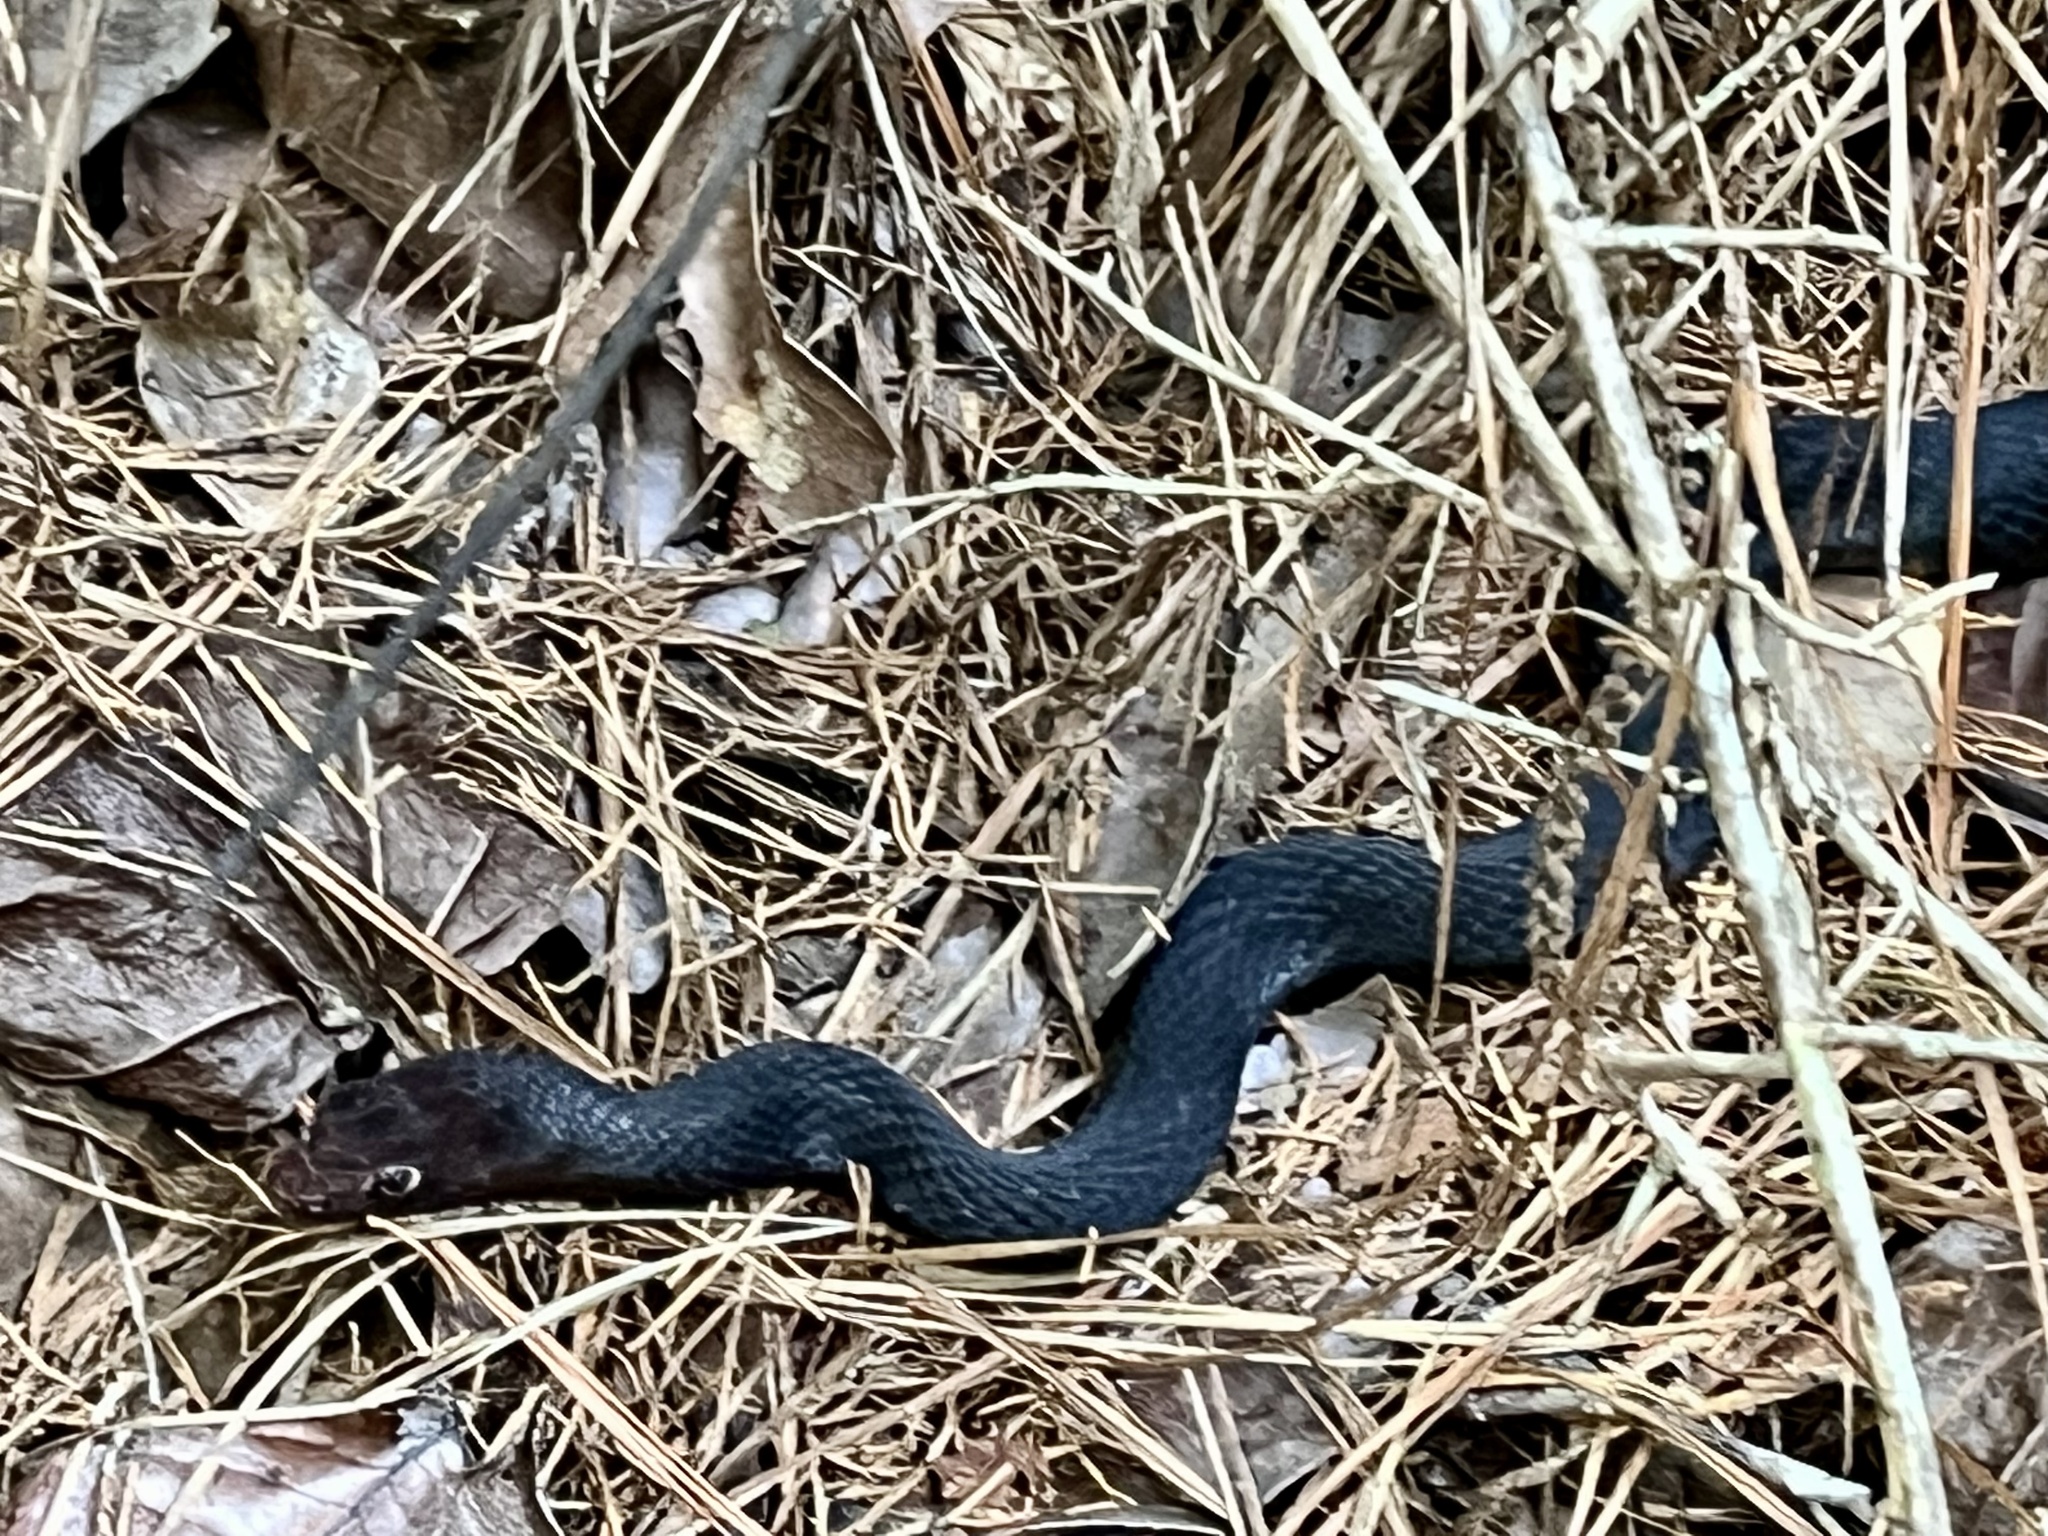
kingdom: Animalia
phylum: Chordata
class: Squamata
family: Colubridae
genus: Masticophis
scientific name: Masticophis flagellum
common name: Coachwhip
